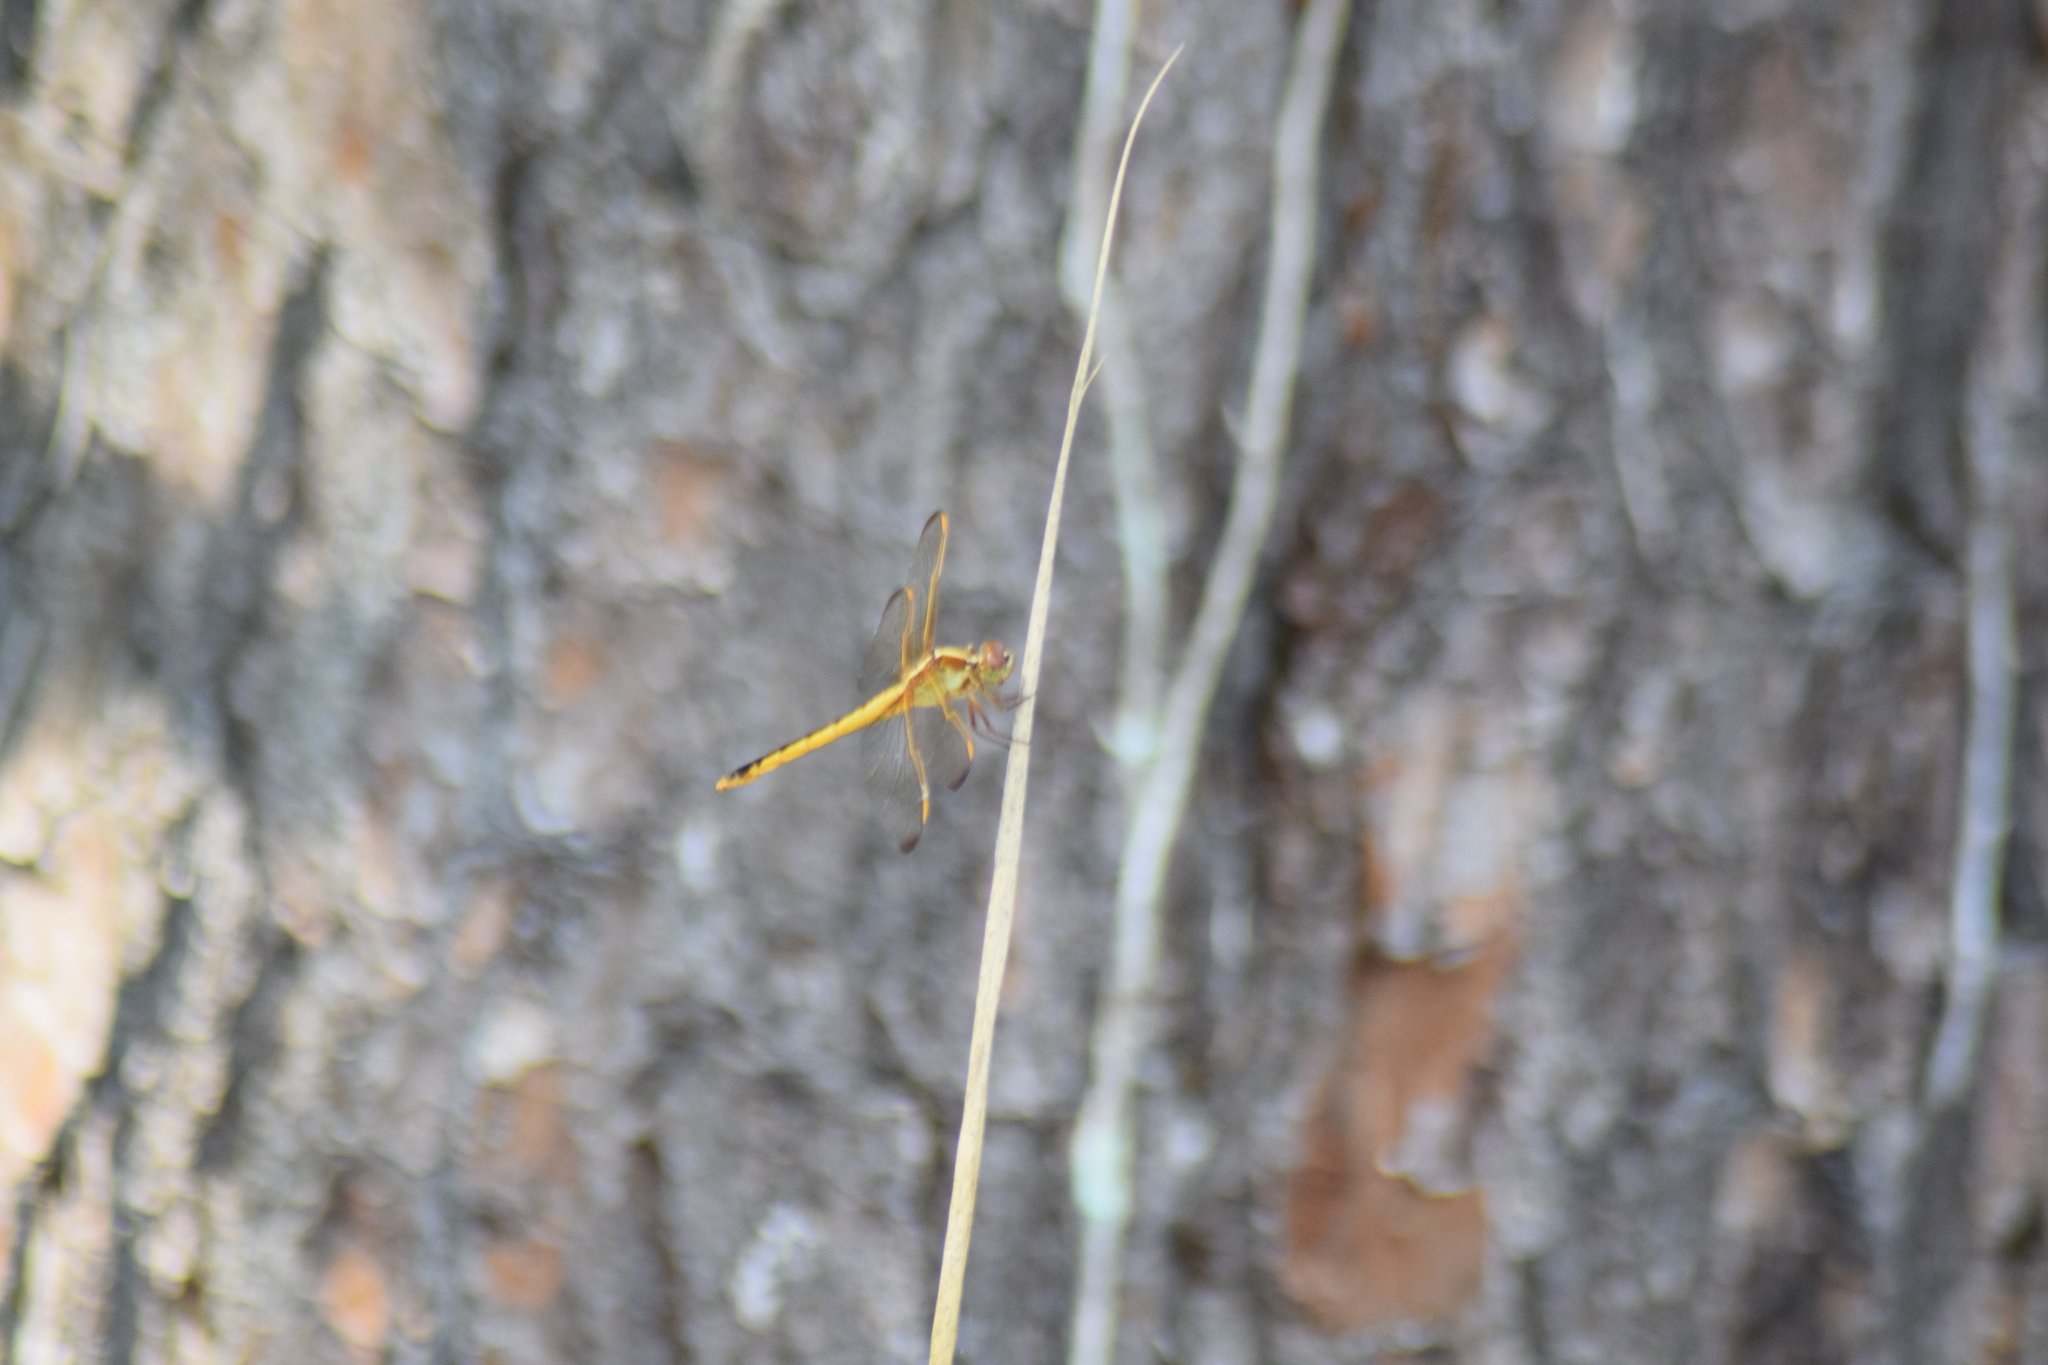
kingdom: Animalia
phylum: Arthropoda
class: Insecta
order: Odonata
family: Libellulidae
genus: Libellula
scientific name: Libellula needhami
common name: Needham's skimmer
